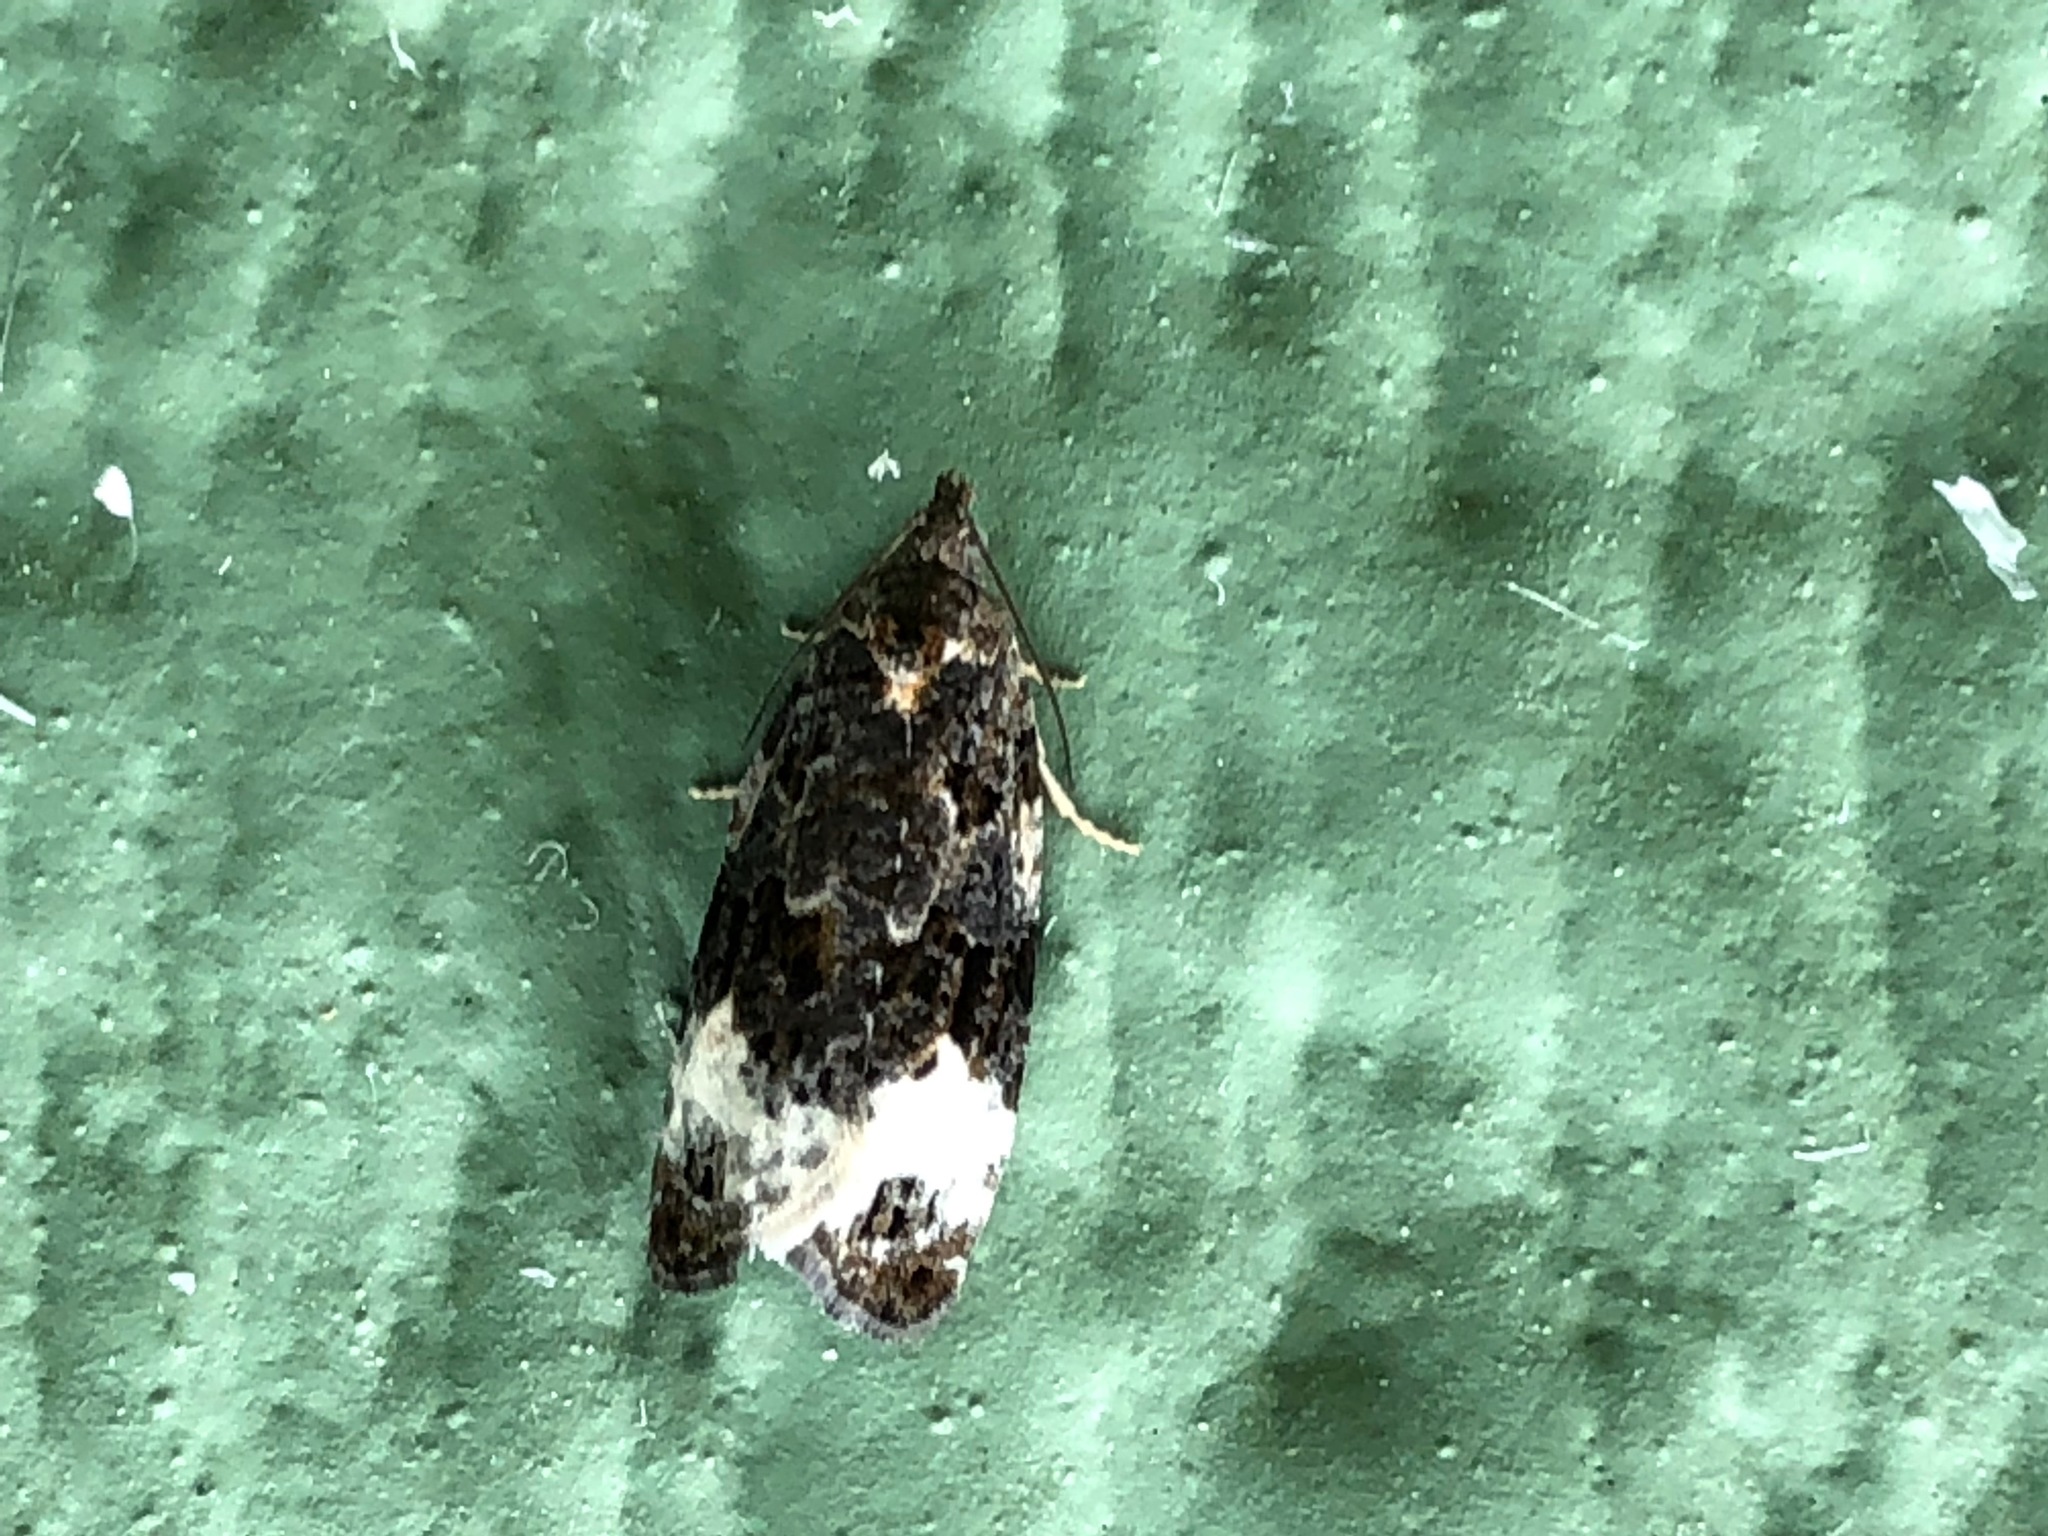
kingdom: Animalia
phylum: Arthropoda
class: Insecta
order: Lepidoptera
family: Tortricidae
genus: Apotomis
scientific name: Apotomis capreana
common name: Sallow marble
